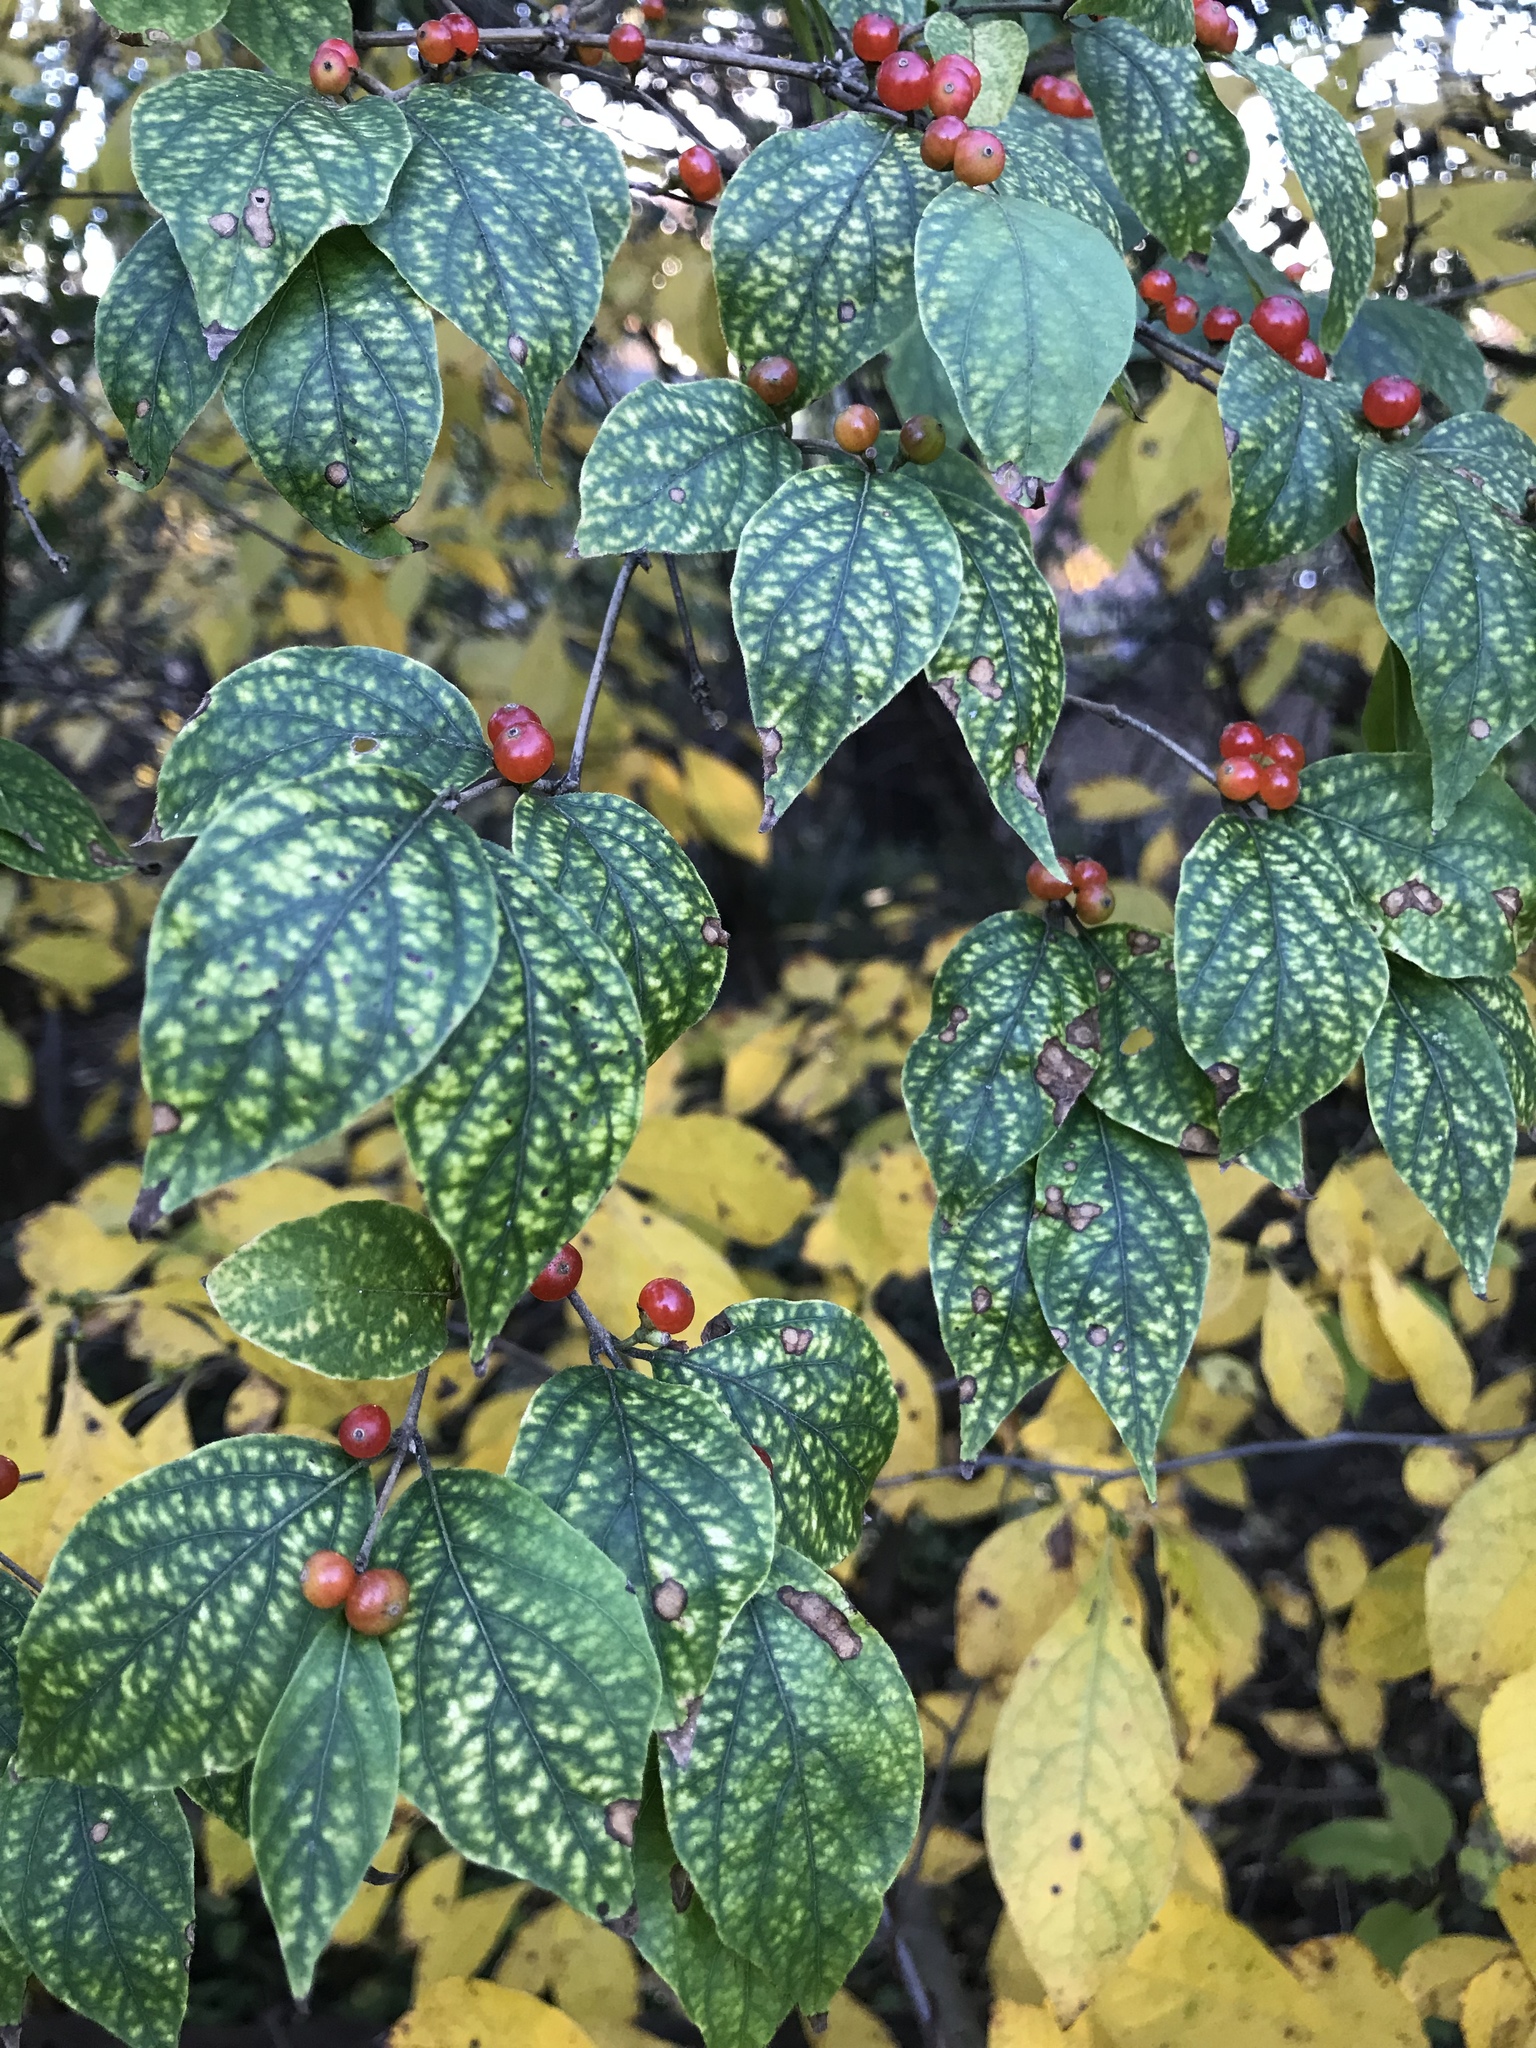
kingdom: Plantae
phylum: Tracheophyta
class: Magnoliopsida
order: Dipsacales
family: Caprifoliaceae
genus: Lonicera
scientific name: Lonicera maackii
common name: Amur honeysuckle
